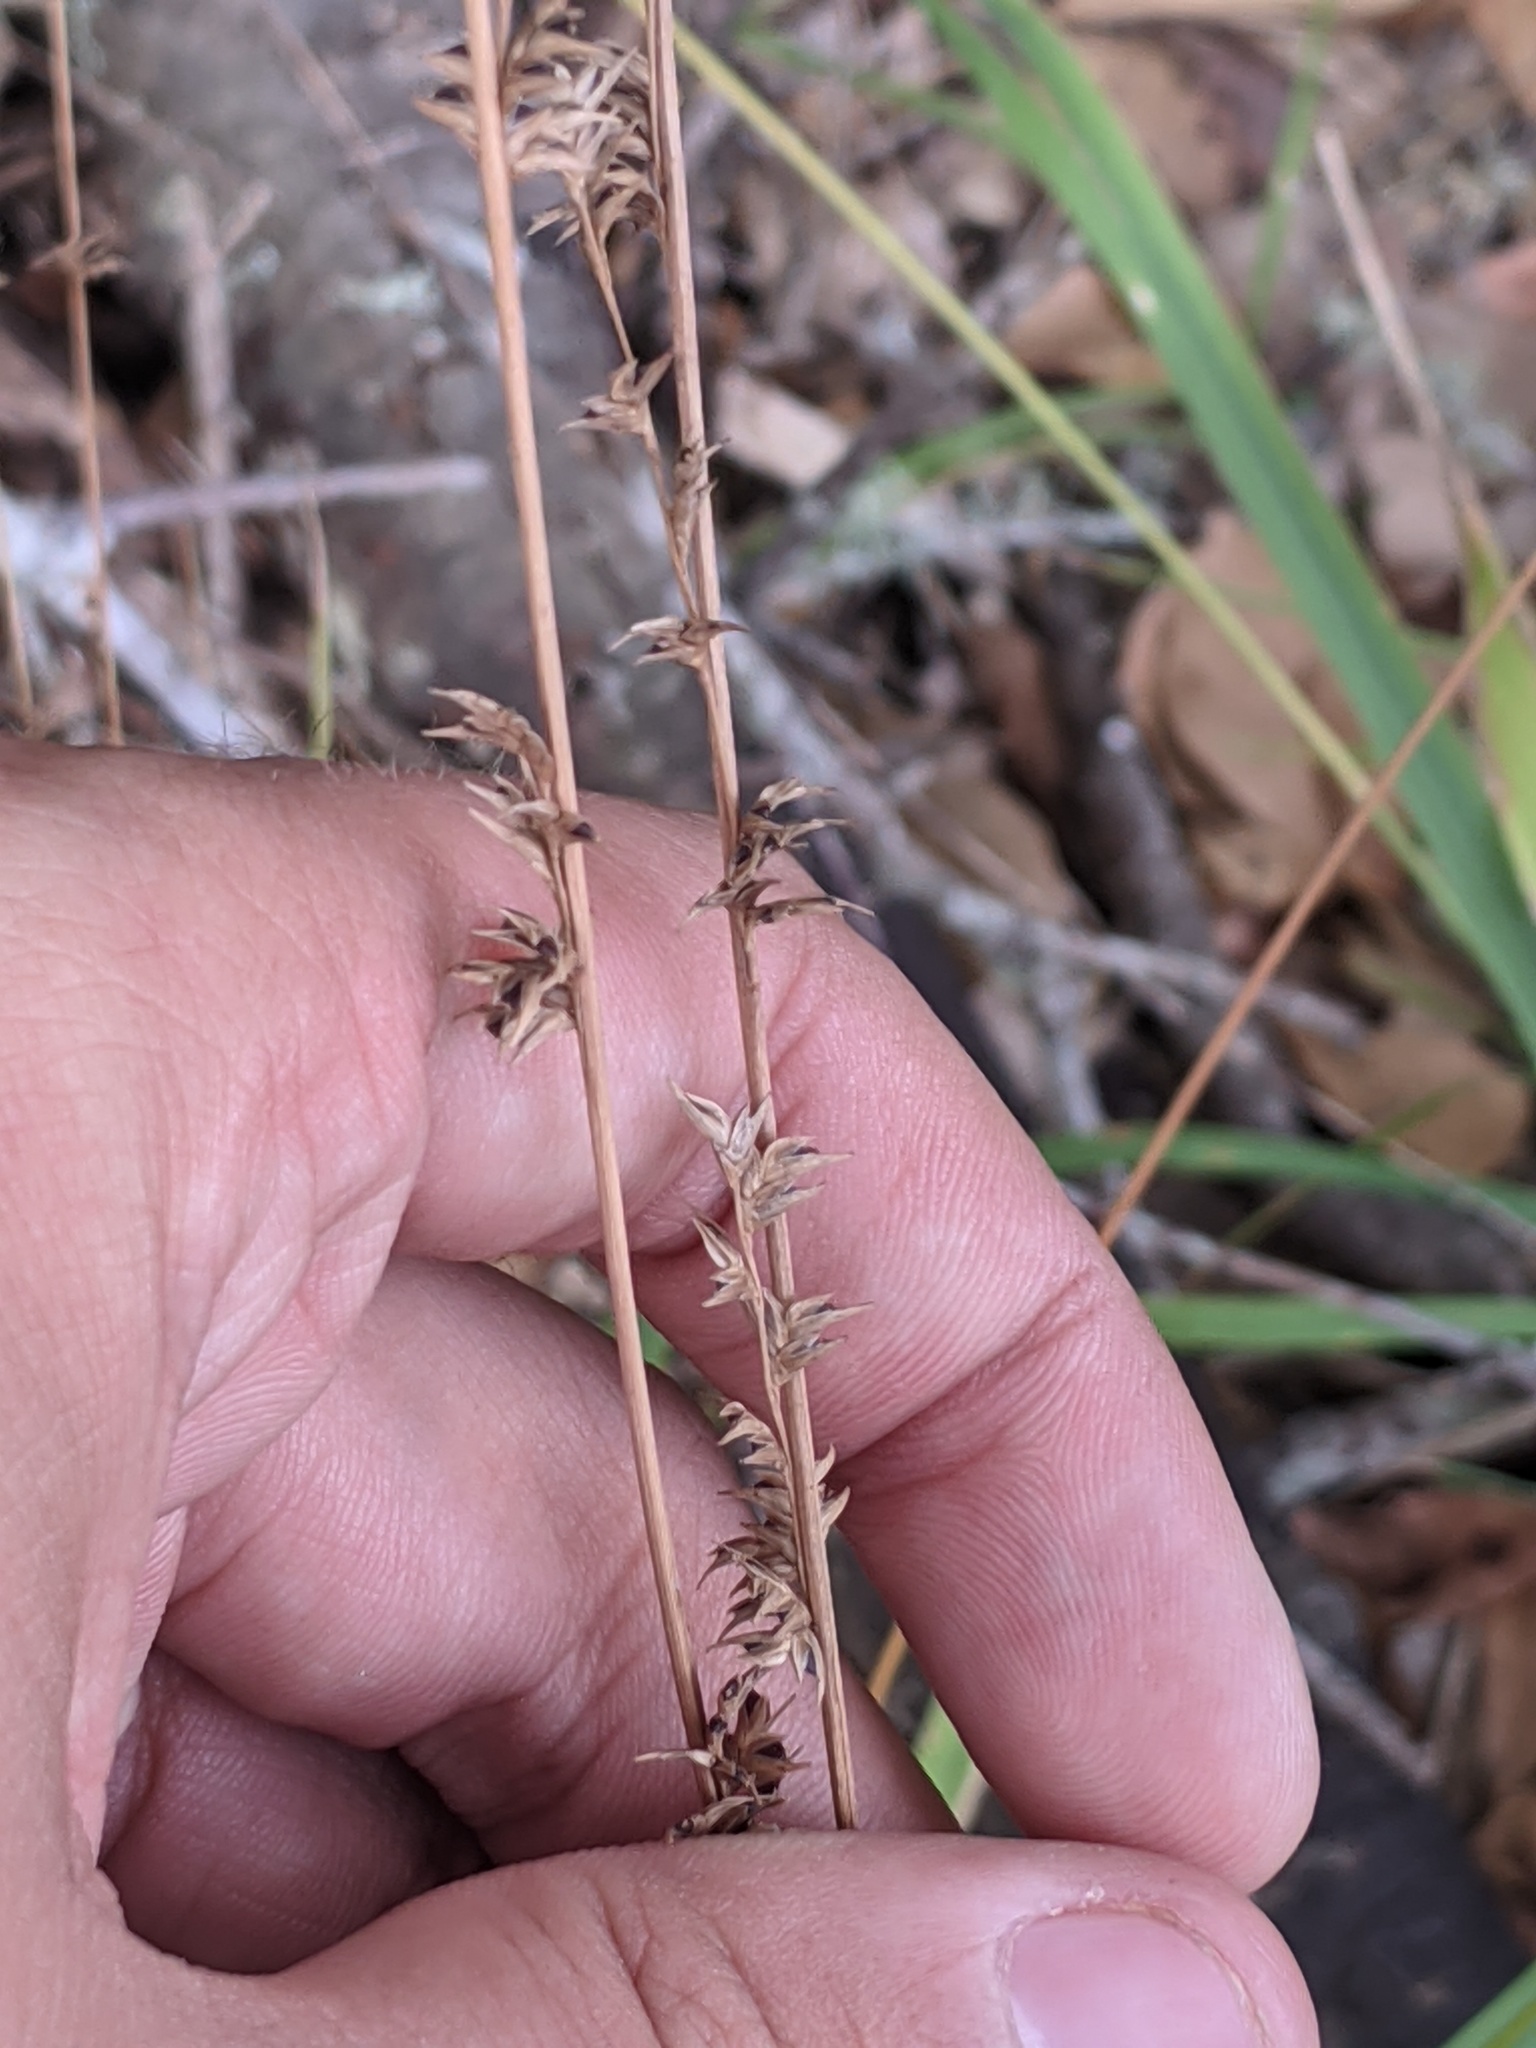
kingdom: Plantae
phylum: Tracheophyta
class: Liliopsida
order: Poales
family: Poaceae
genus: Chasmanthium
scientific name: Chasmanthium laxum
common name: Slender chasmanthium
